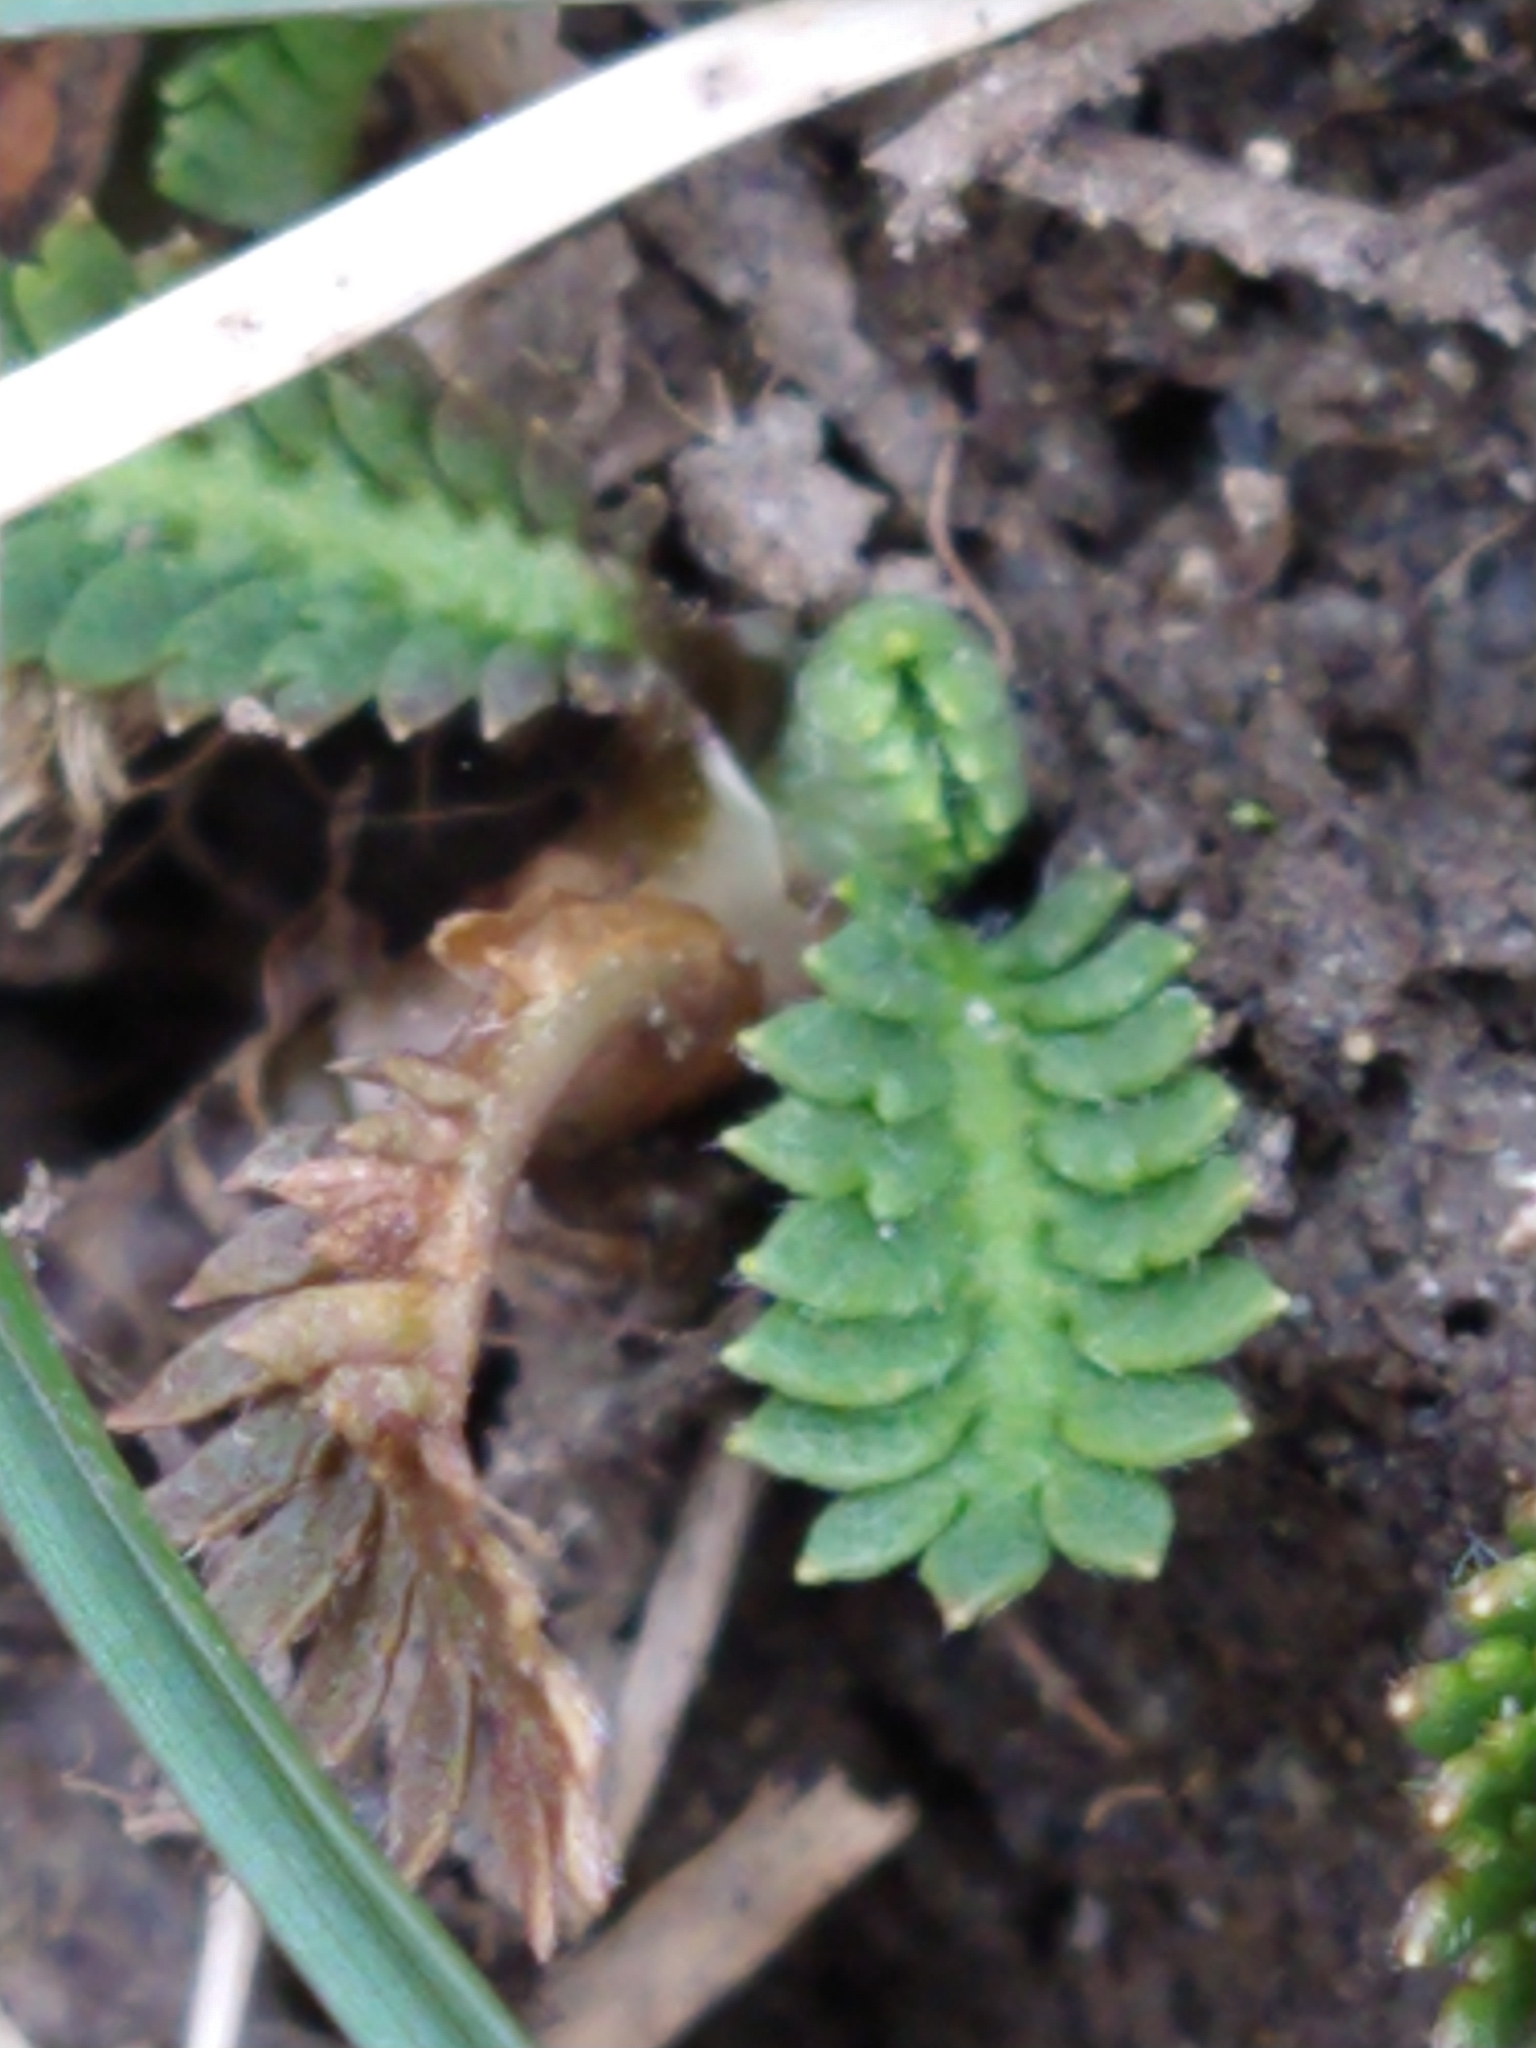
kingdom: Plantae
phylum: Tracheophyta
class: Magnoliopsida
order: Asterales
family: Asteraceae
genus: Leptinella
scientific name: Leptinella scariosa
